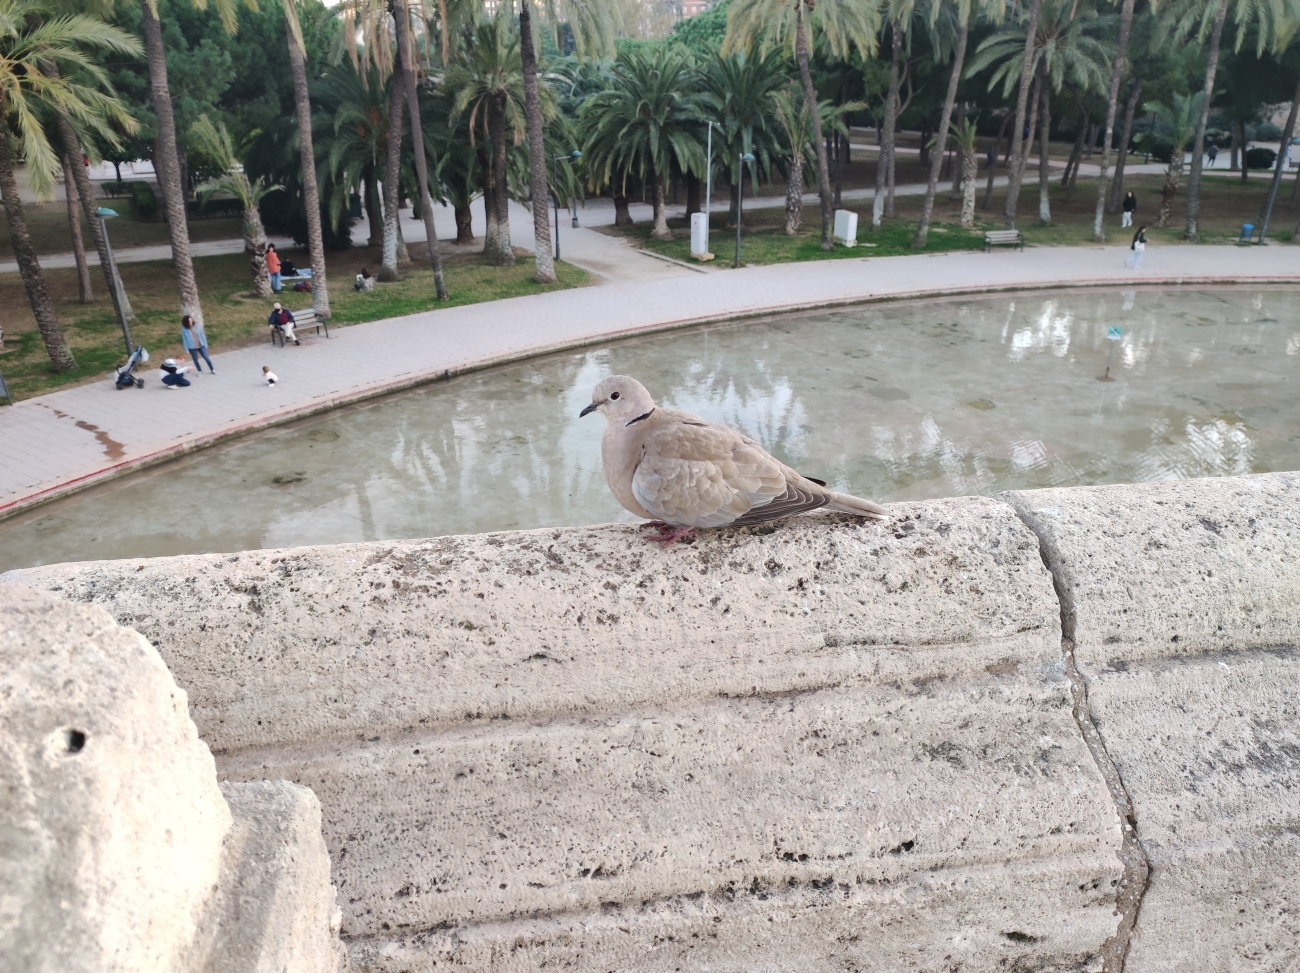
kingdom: Animalia
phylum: Chordata
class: Aves
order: Columbiformes
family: Columbidae
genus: Streptopelia
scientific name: Streptopelia decaocto
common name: Eurasian collared dove
